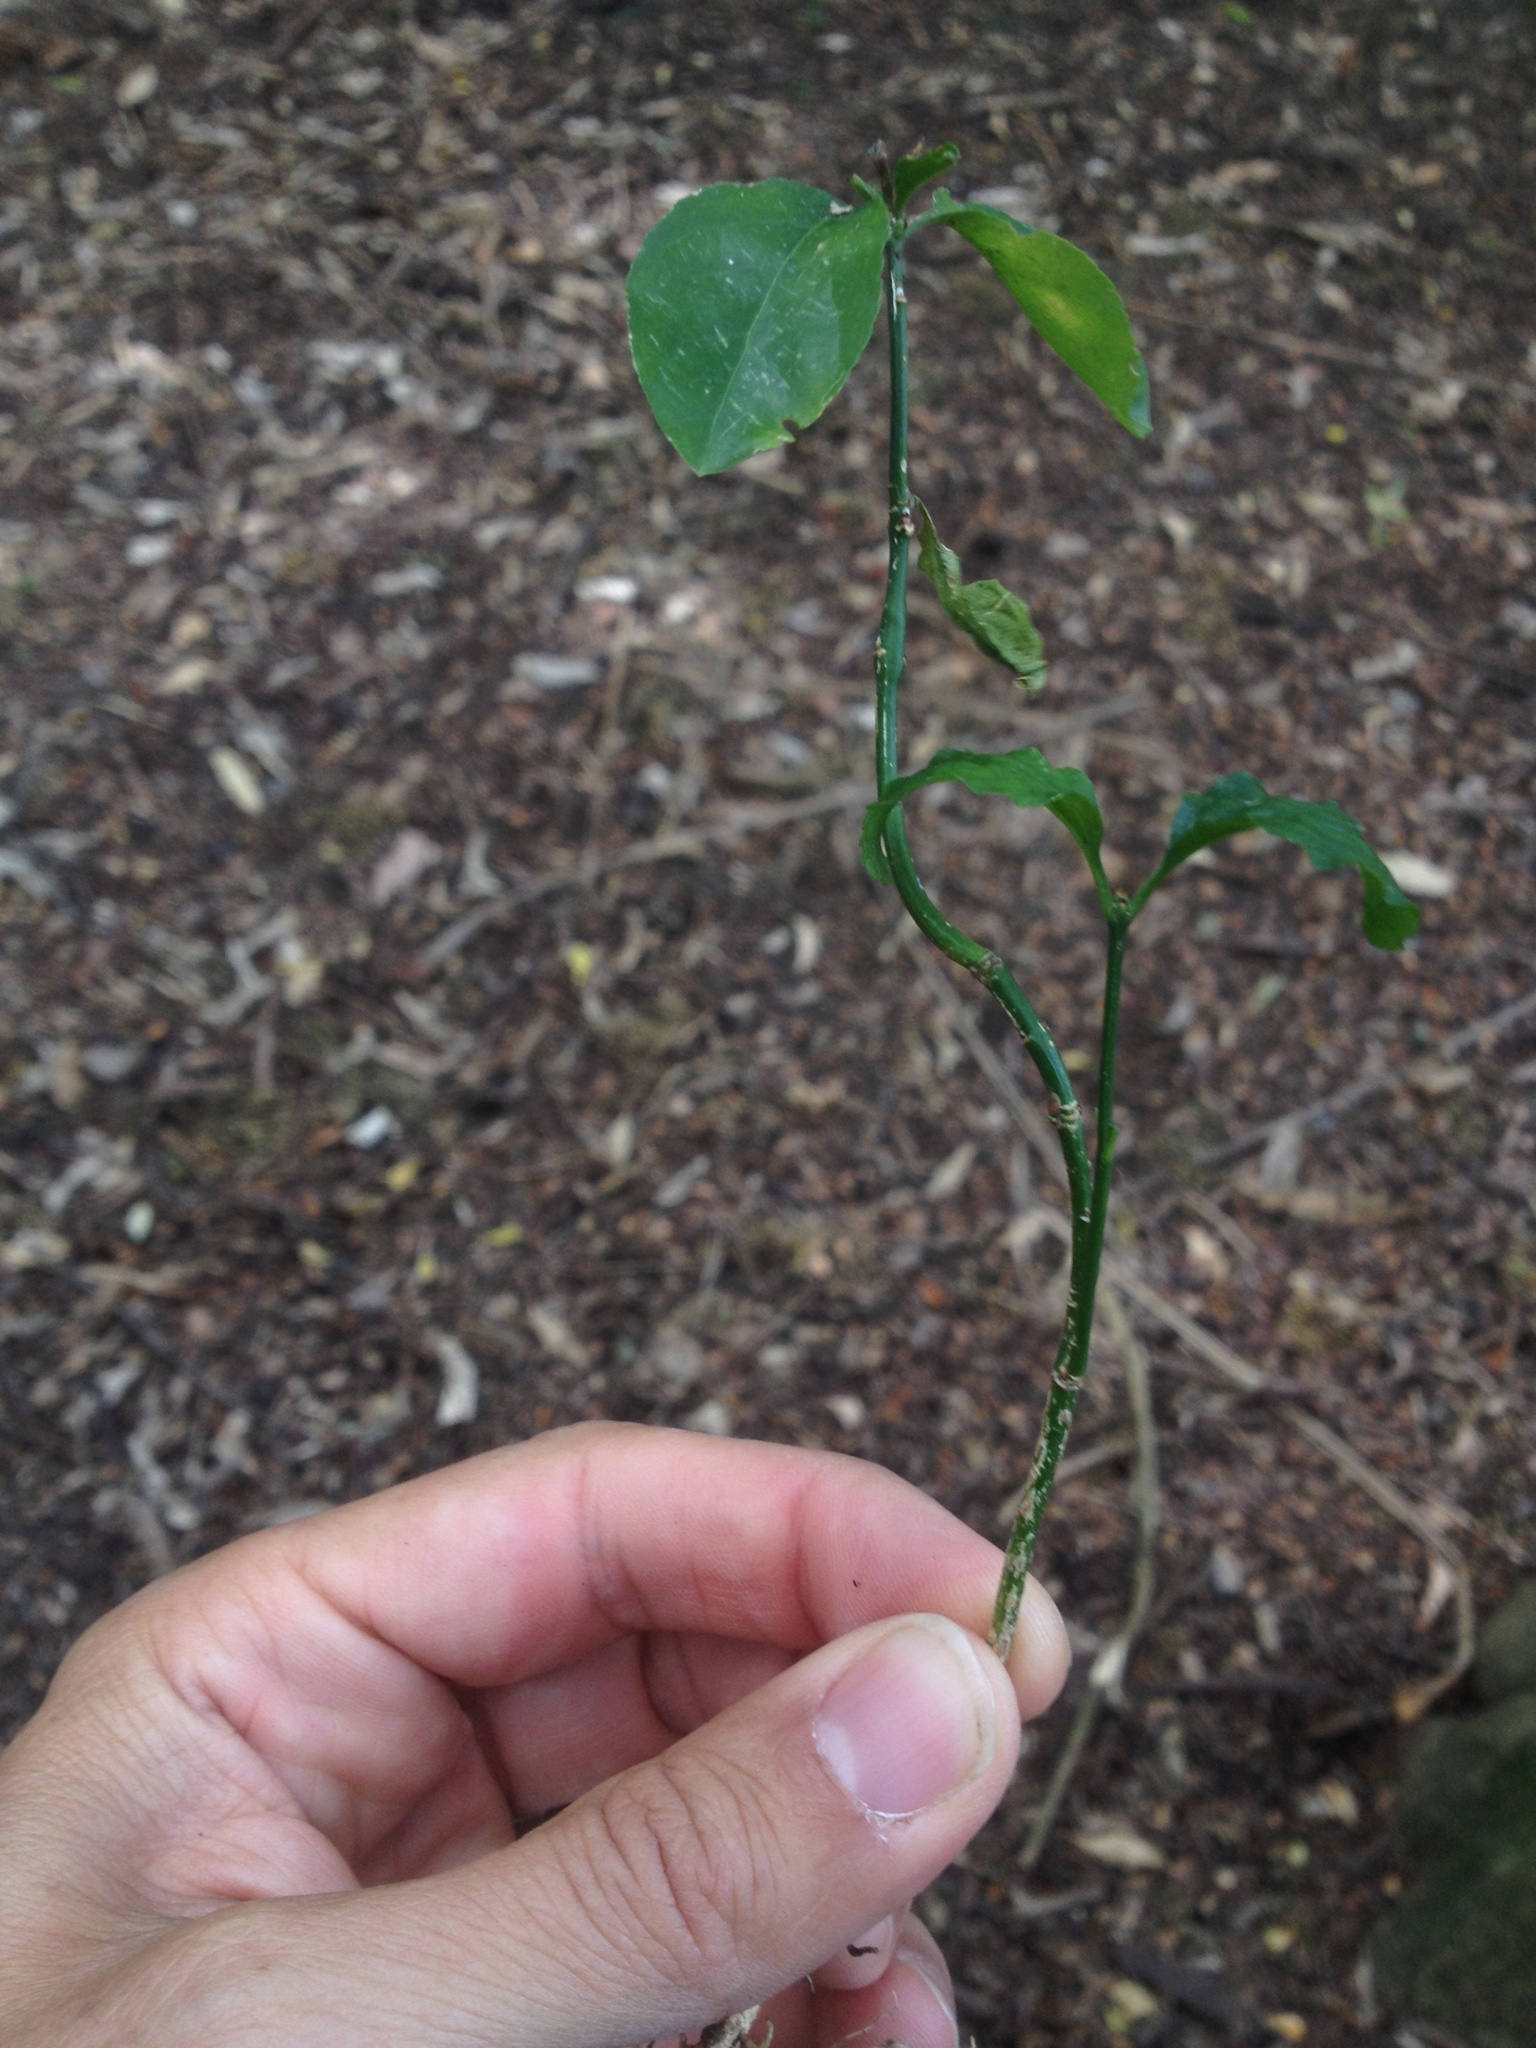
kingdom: Plantae
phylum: Tracheophyta
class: Magnoliopsida
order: Celastrales
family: Celastraceae
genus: Euonymus
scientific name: Euonymus europaeus
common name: Spindle
